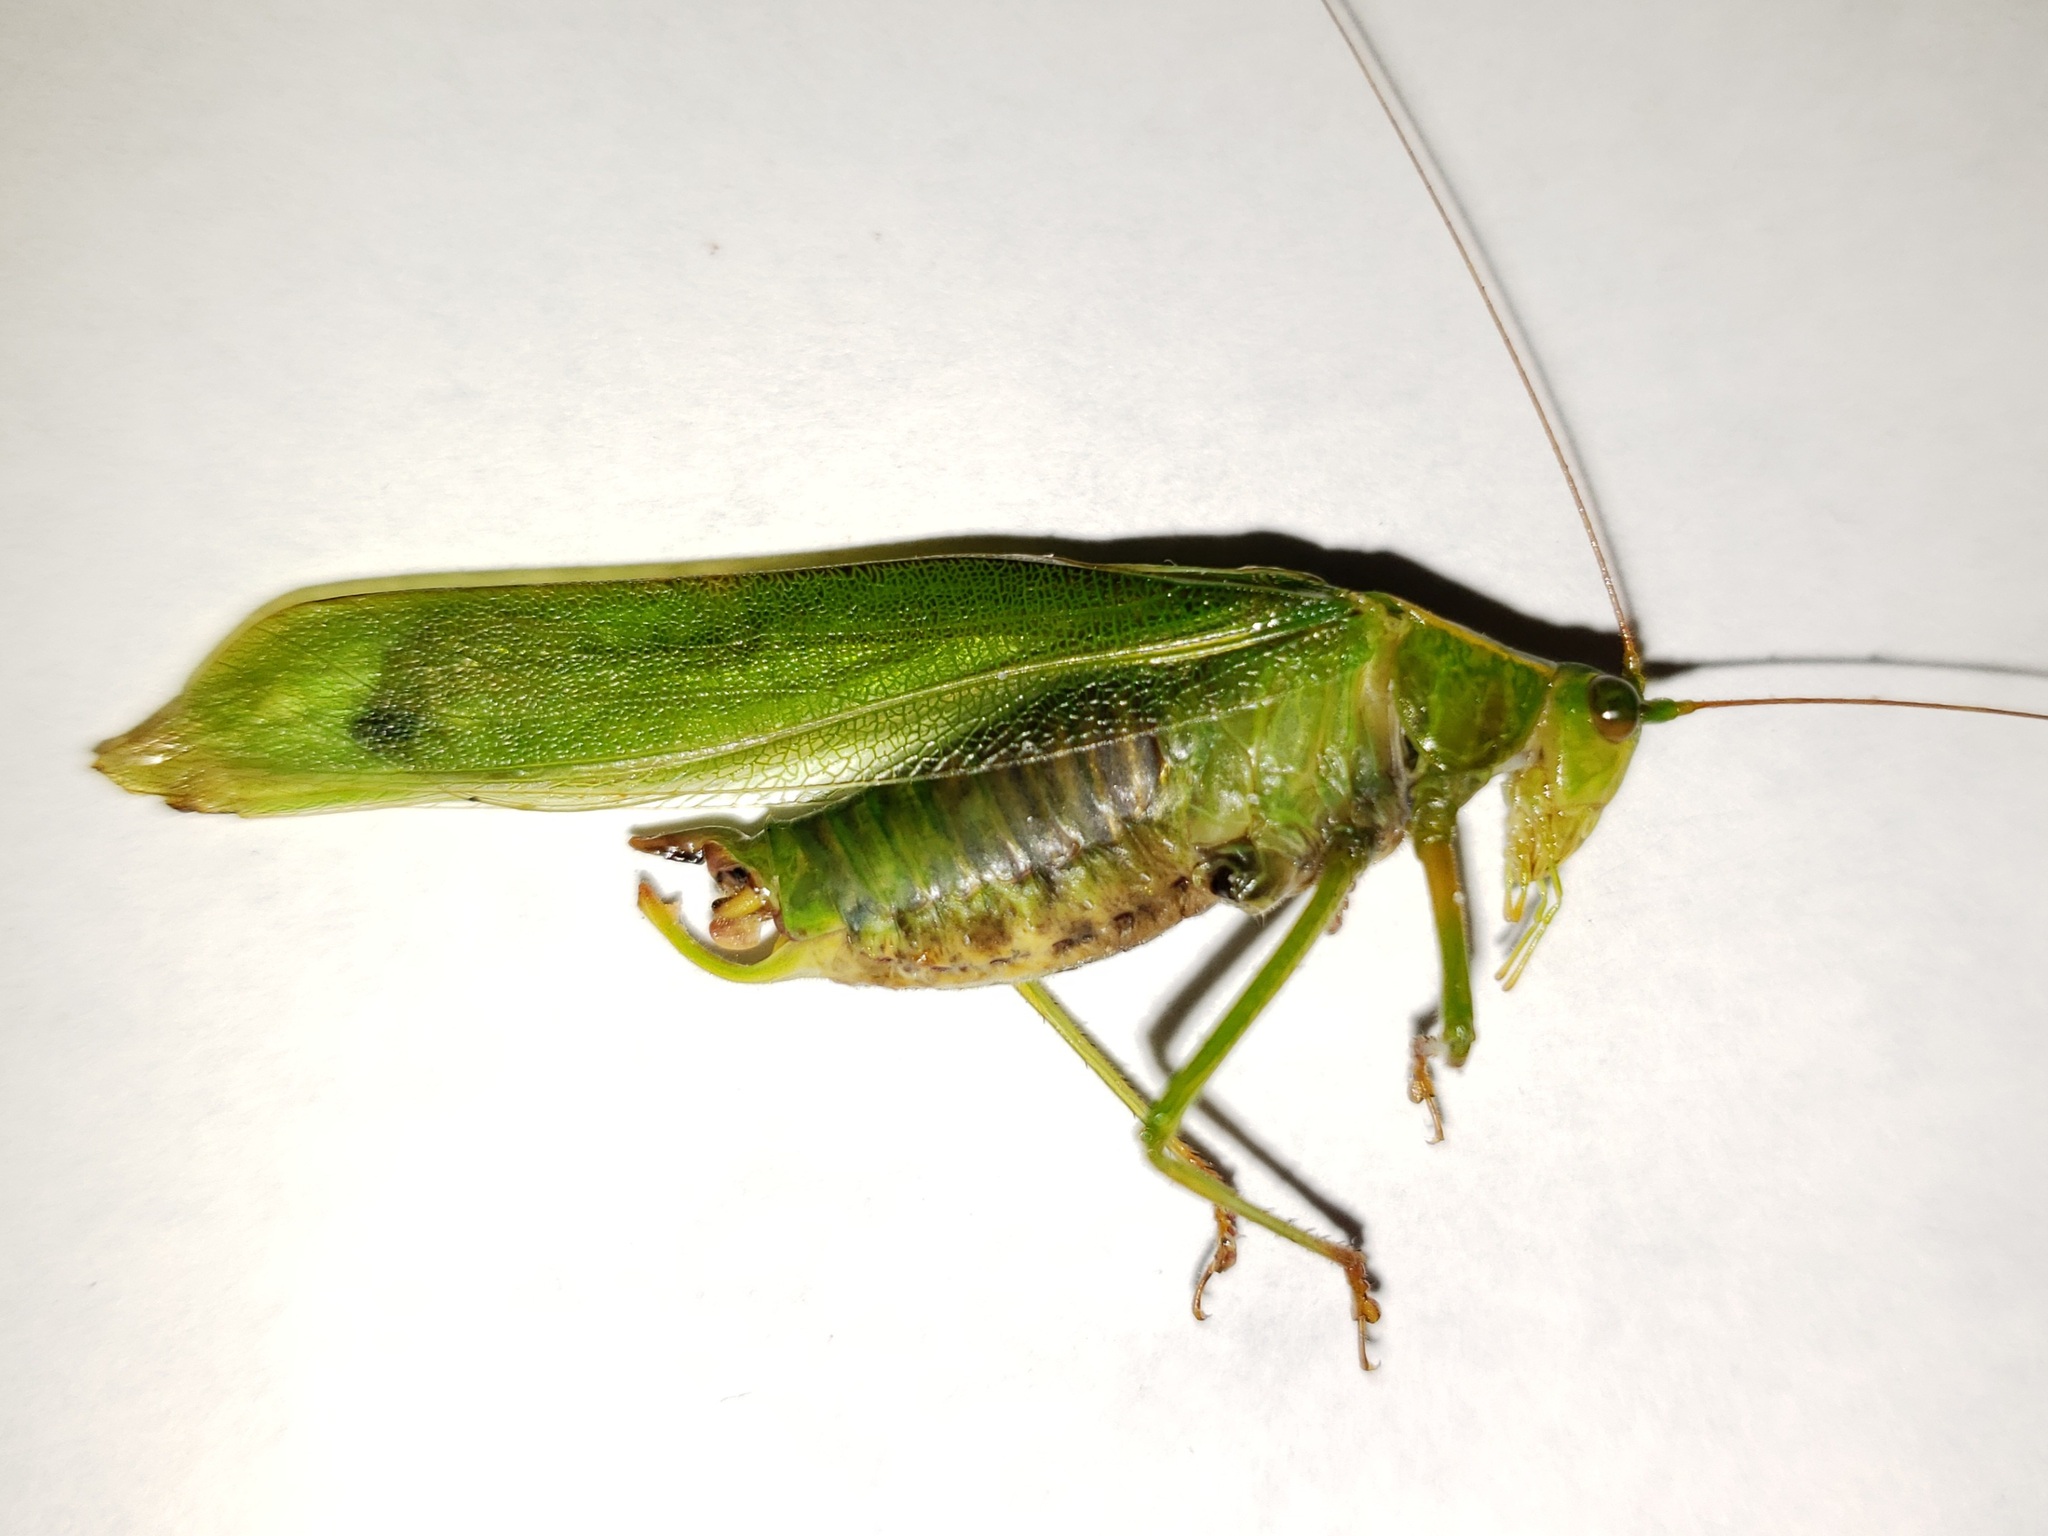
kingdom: Animalia
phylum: Arthropoda
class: Insecta
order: Orthoptera
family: Tettigoniidae
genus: Scudderia
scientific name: Scudderia cuneata
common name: Southeastern bush katydid
